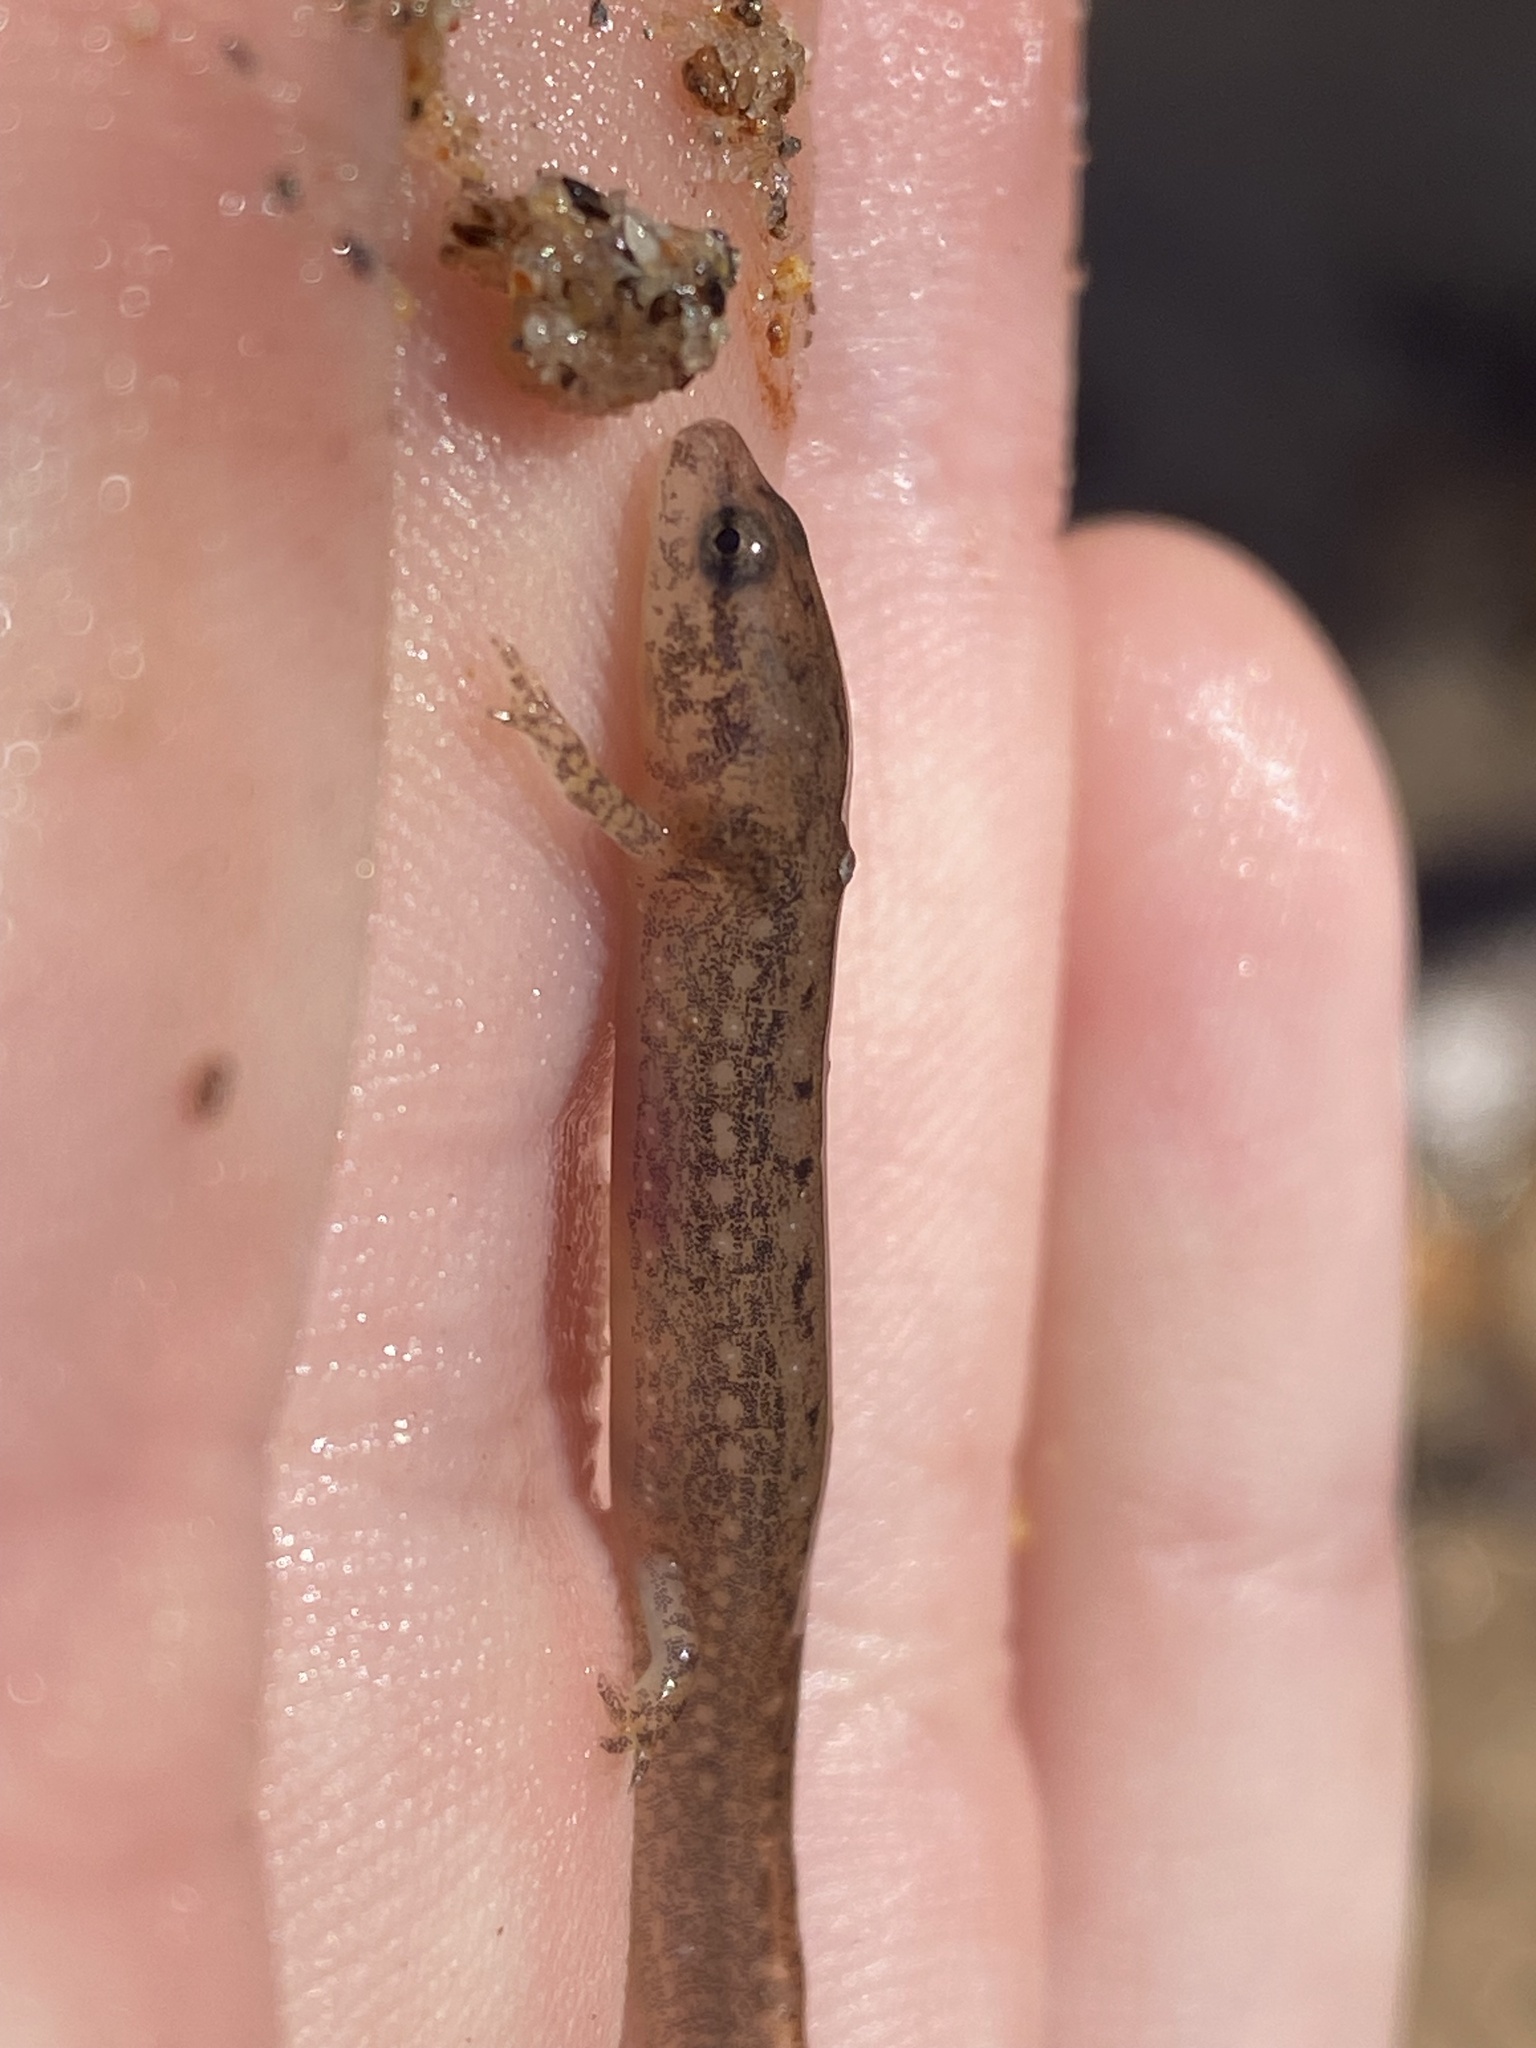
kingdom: Animalia
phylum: Chordata
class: Amphibia
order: Caudata
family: Plethodontidae
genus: Eurycea
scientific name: Eurycea cirrigera
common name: Southern two-lined salamander
